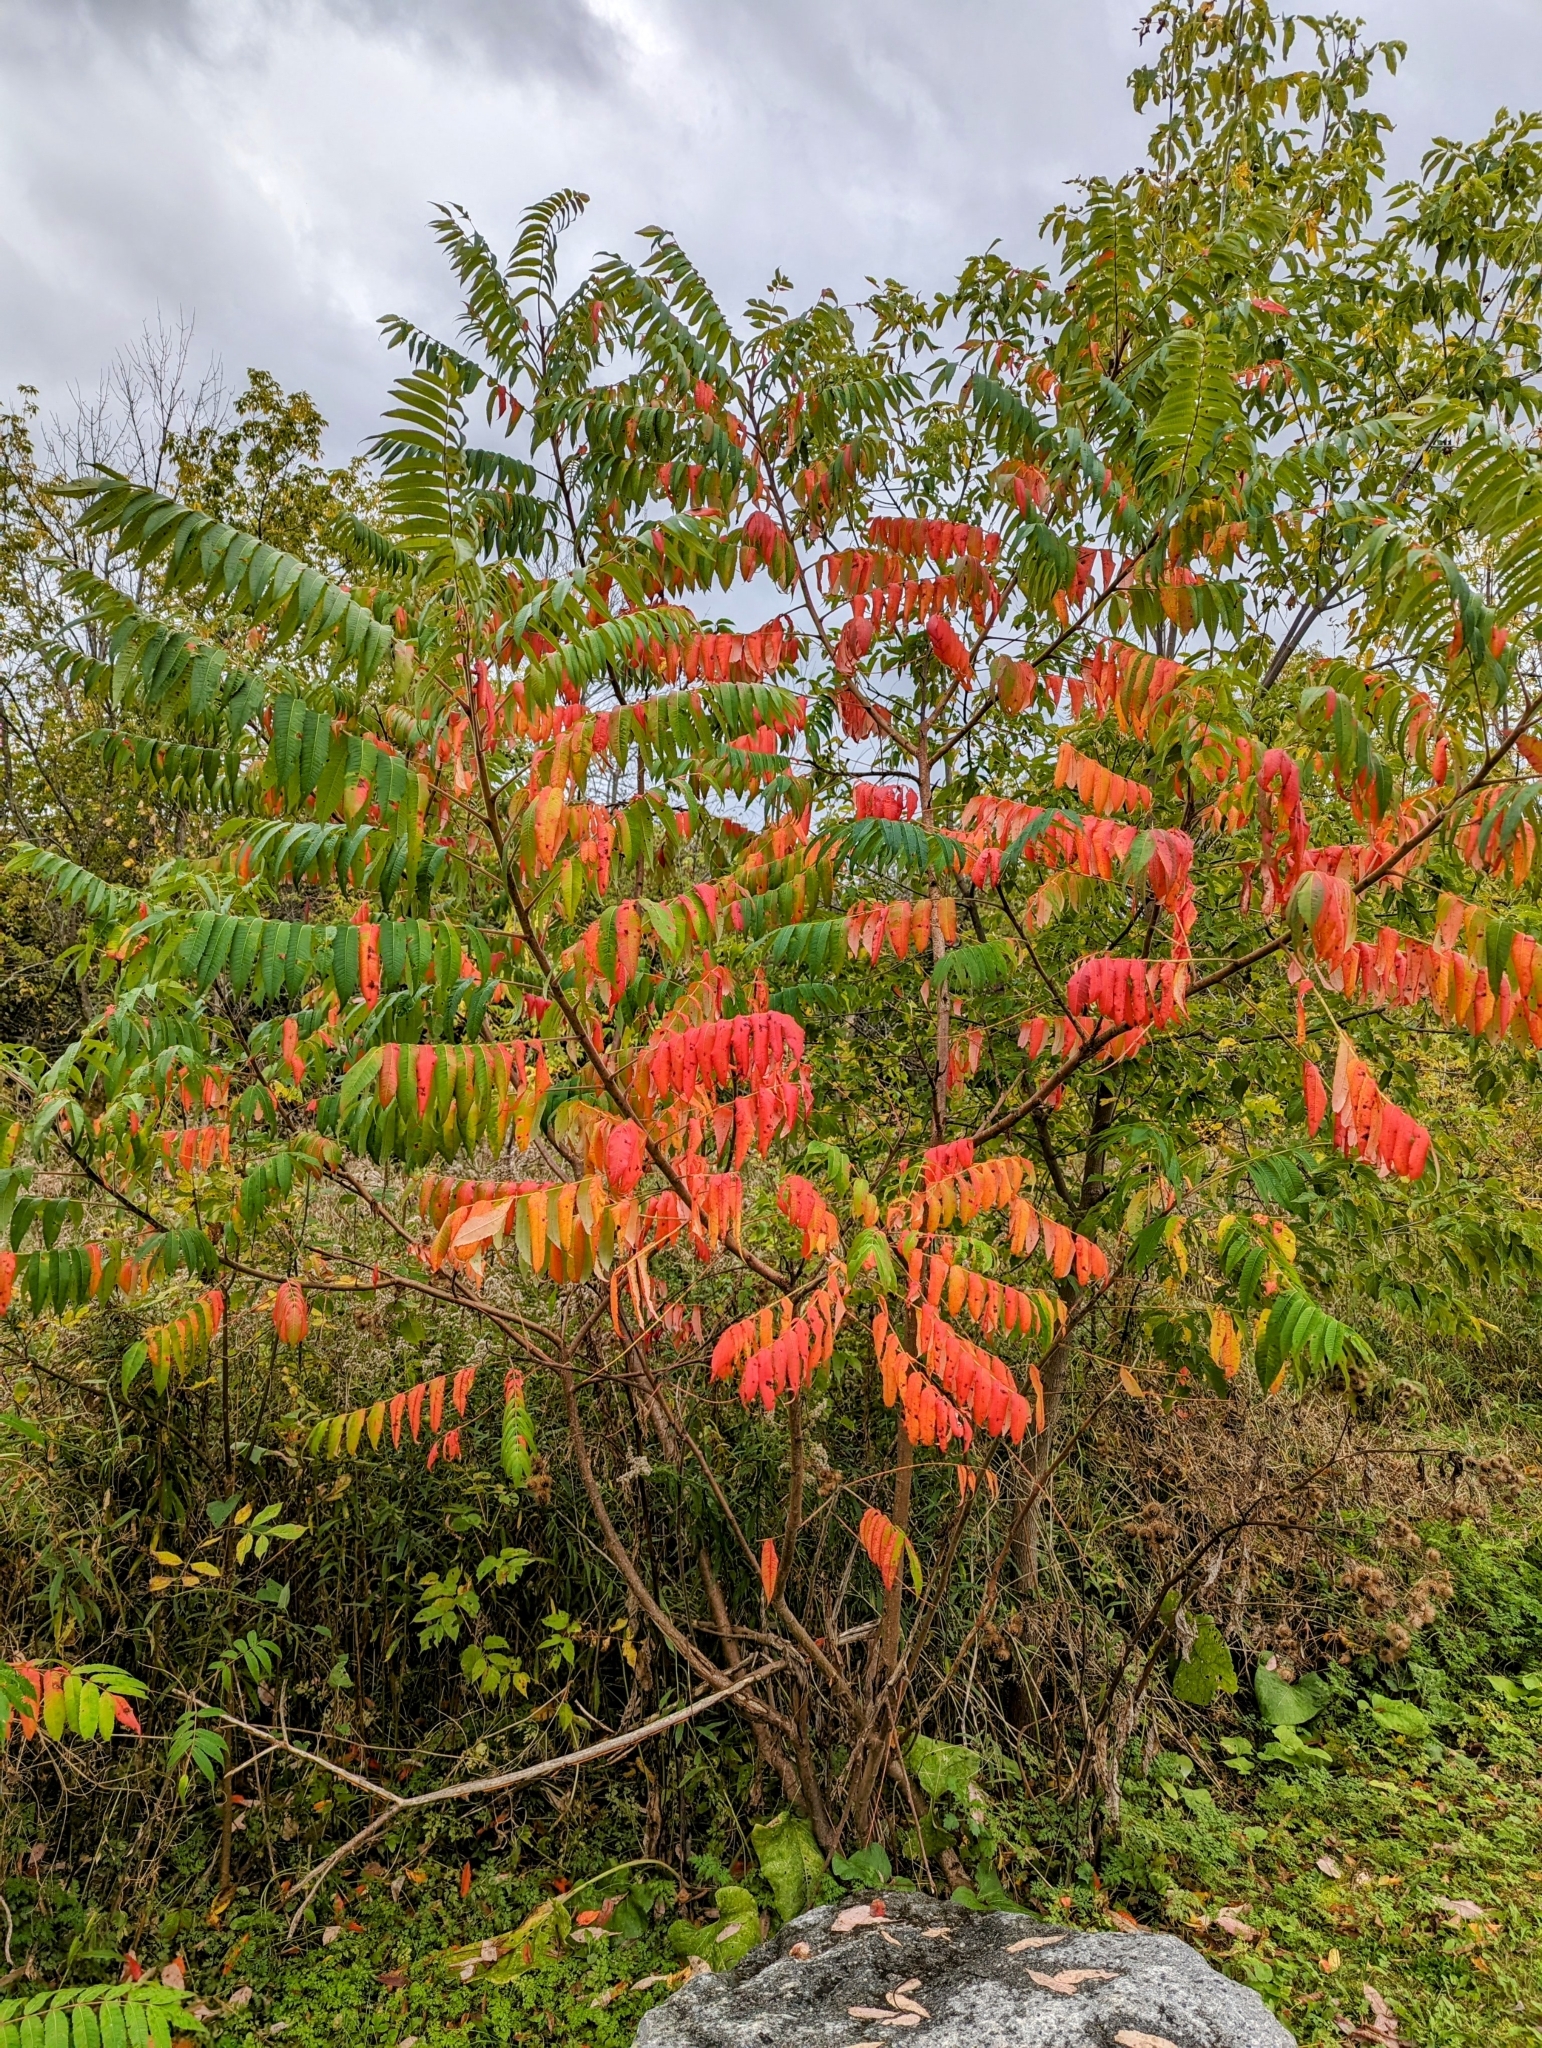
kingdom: Plantae
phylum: Tracheophyta
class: Magnoliopsida
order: Sapindales
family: Anacardiaceae
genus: Rhus
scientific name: Rhus typhina
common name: Staghorn sumac
